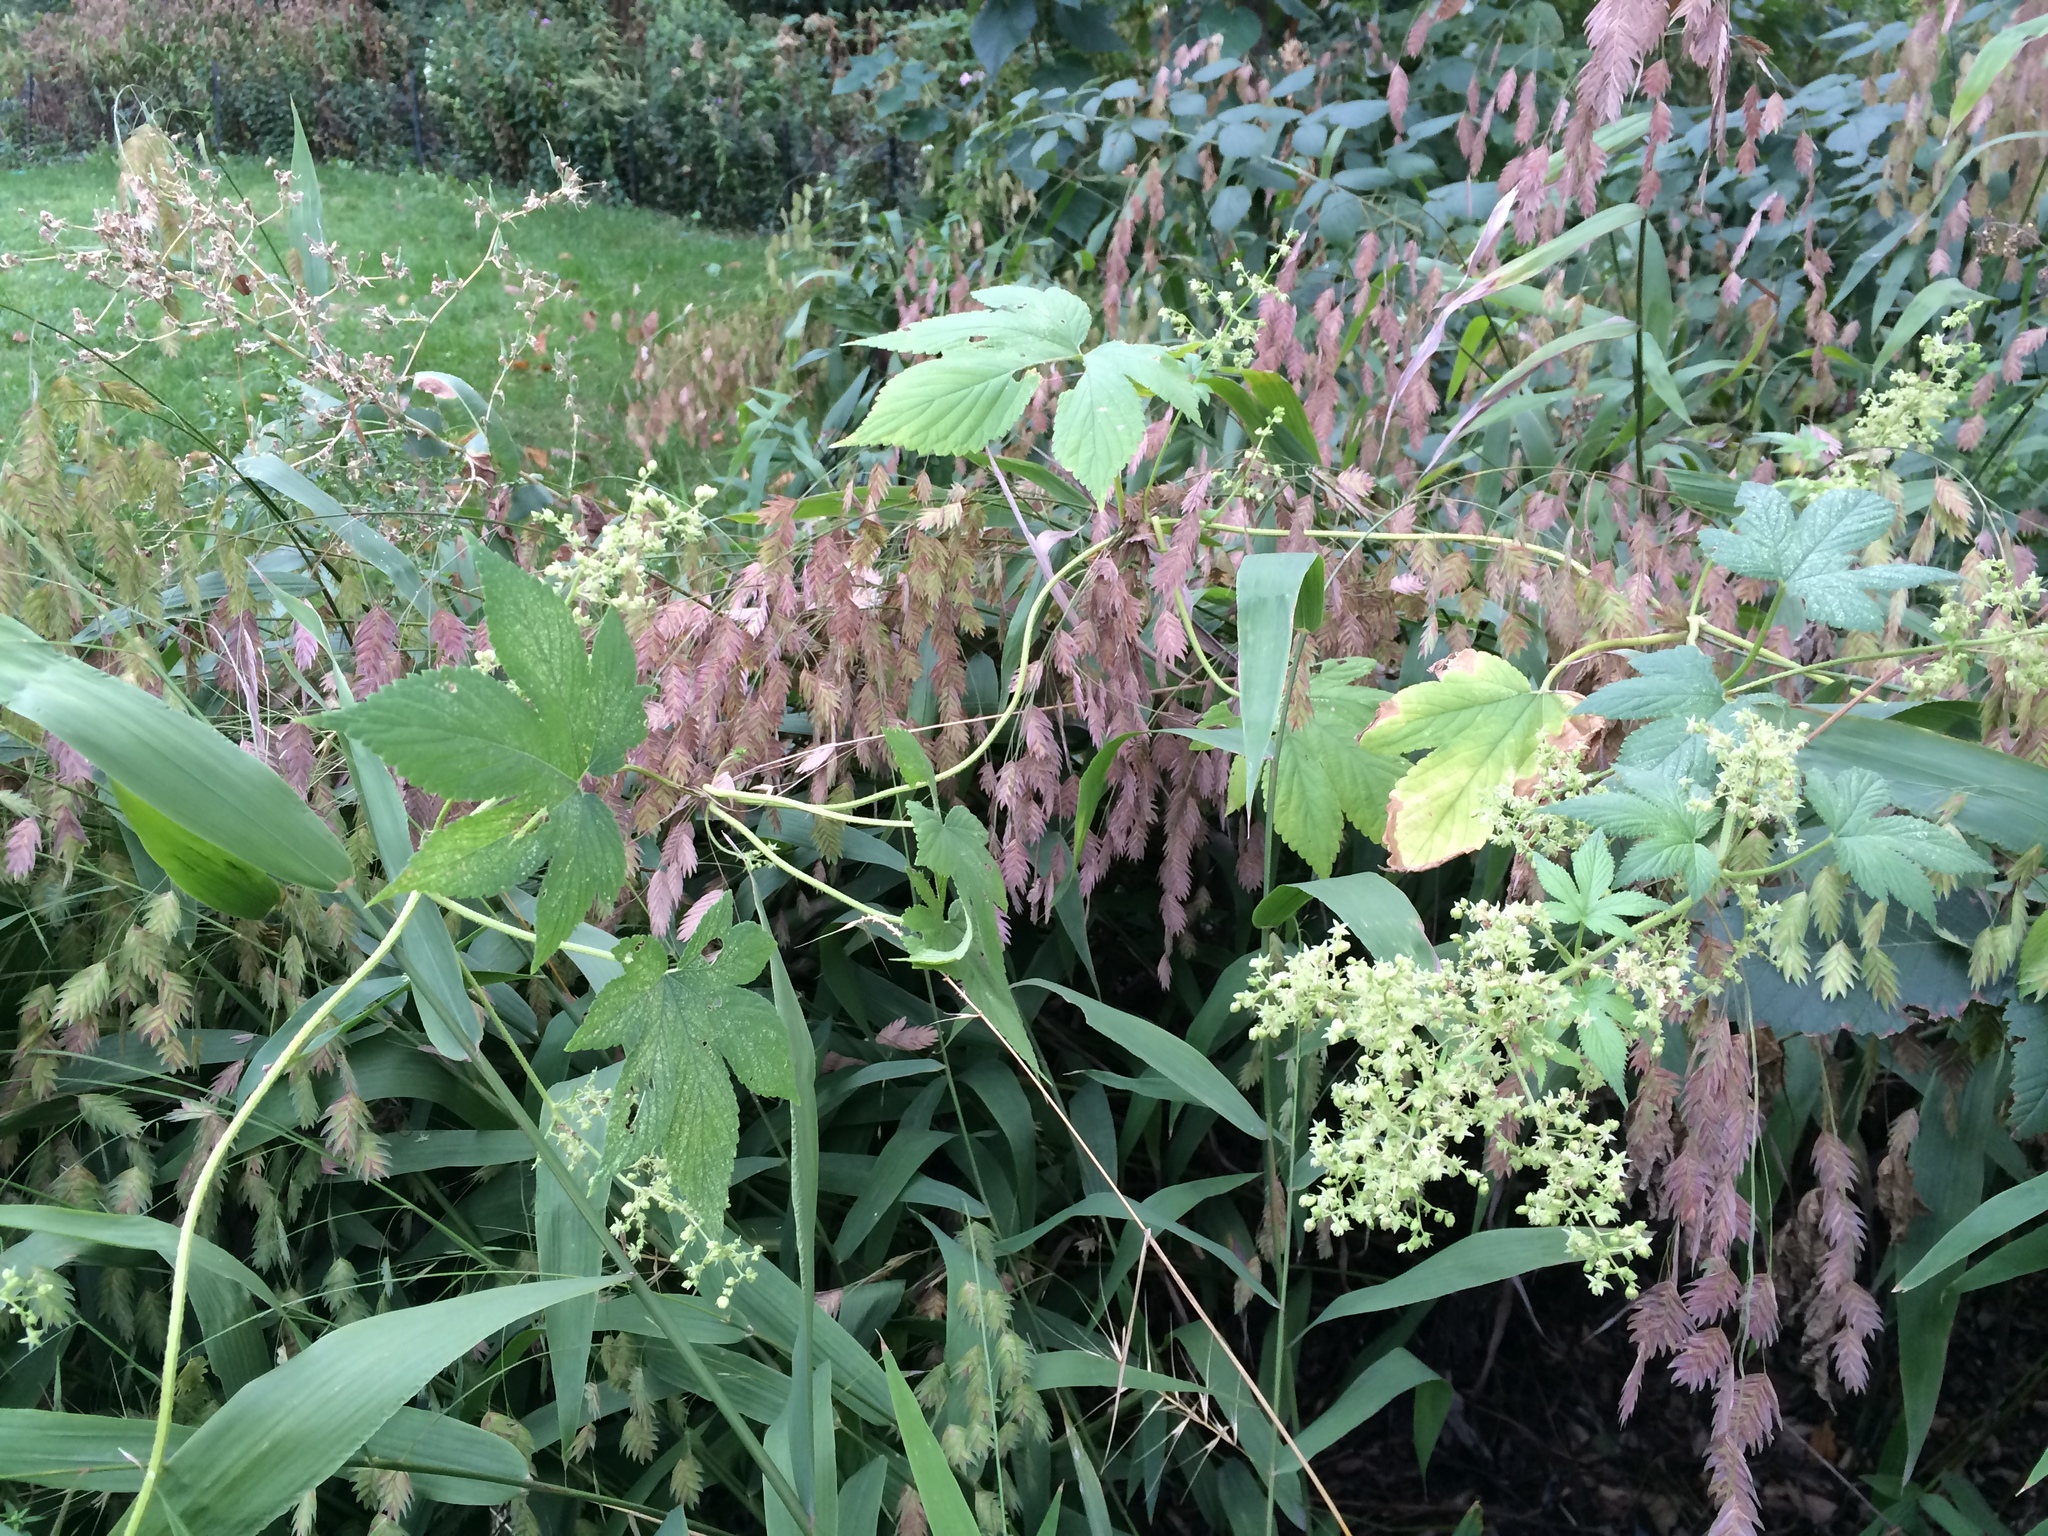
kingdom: Plantae
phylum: Tracheophyta
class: Magnoliopsida
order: Rosales
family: Cannabaceae
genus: Humulus
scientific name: Humulus scandens
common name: Japanese hop
